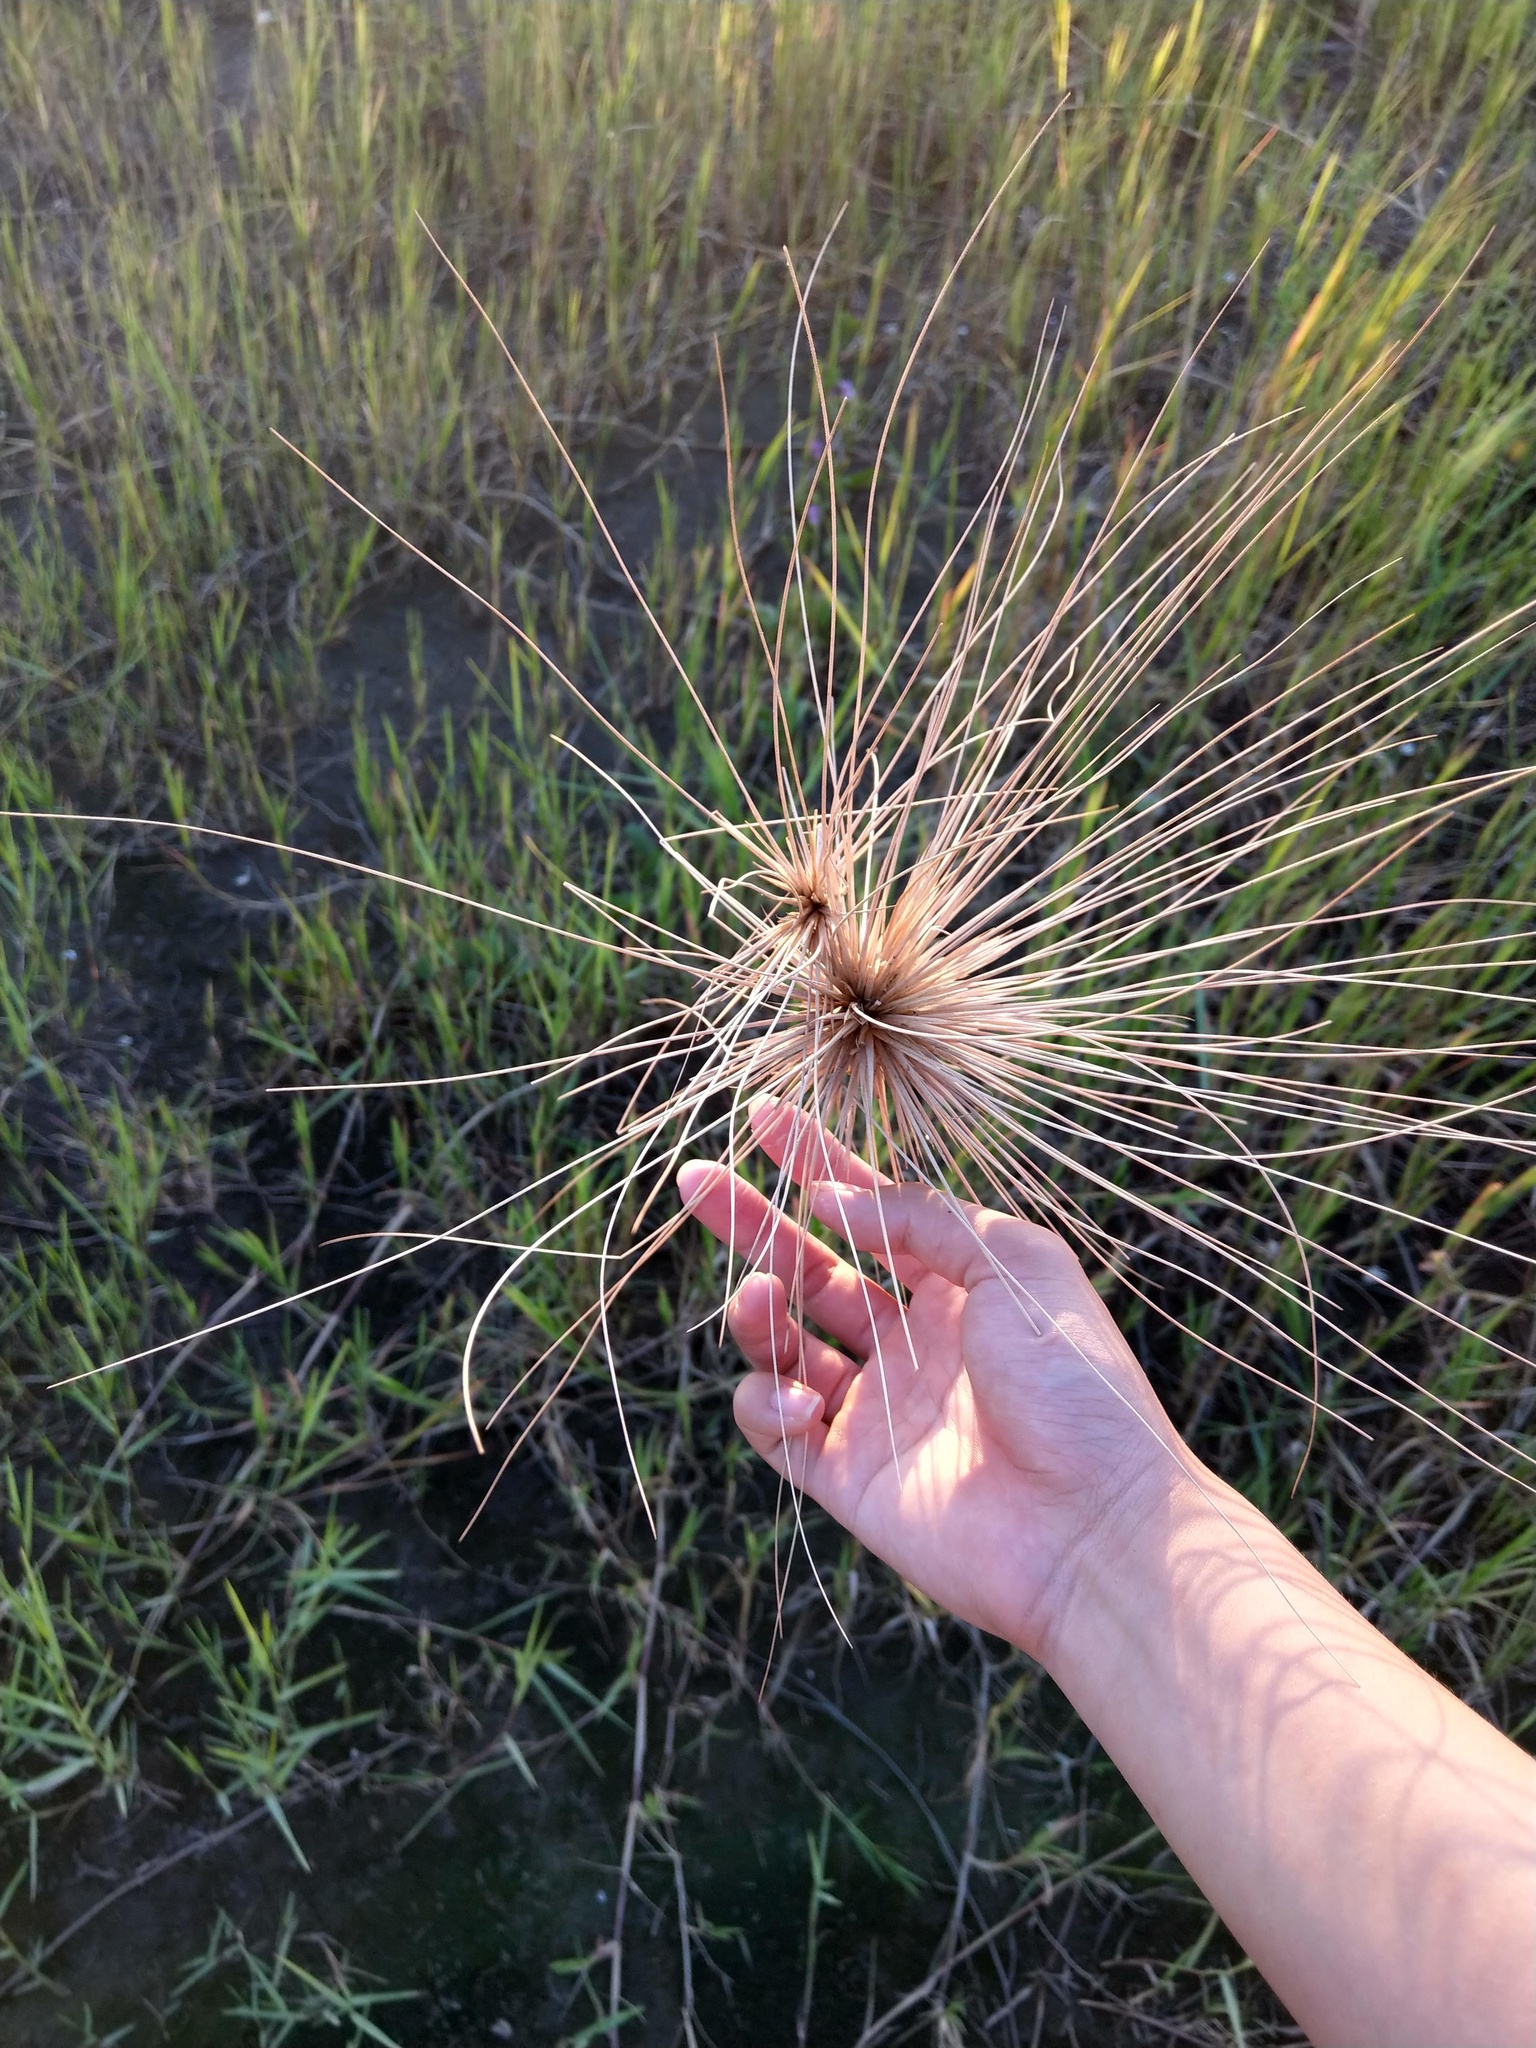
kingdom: Plantae
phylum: Tracheophyta
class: Liliopsida
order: Poales
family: Poaceae
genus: Spinifex
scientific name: Spinifex littoreus
